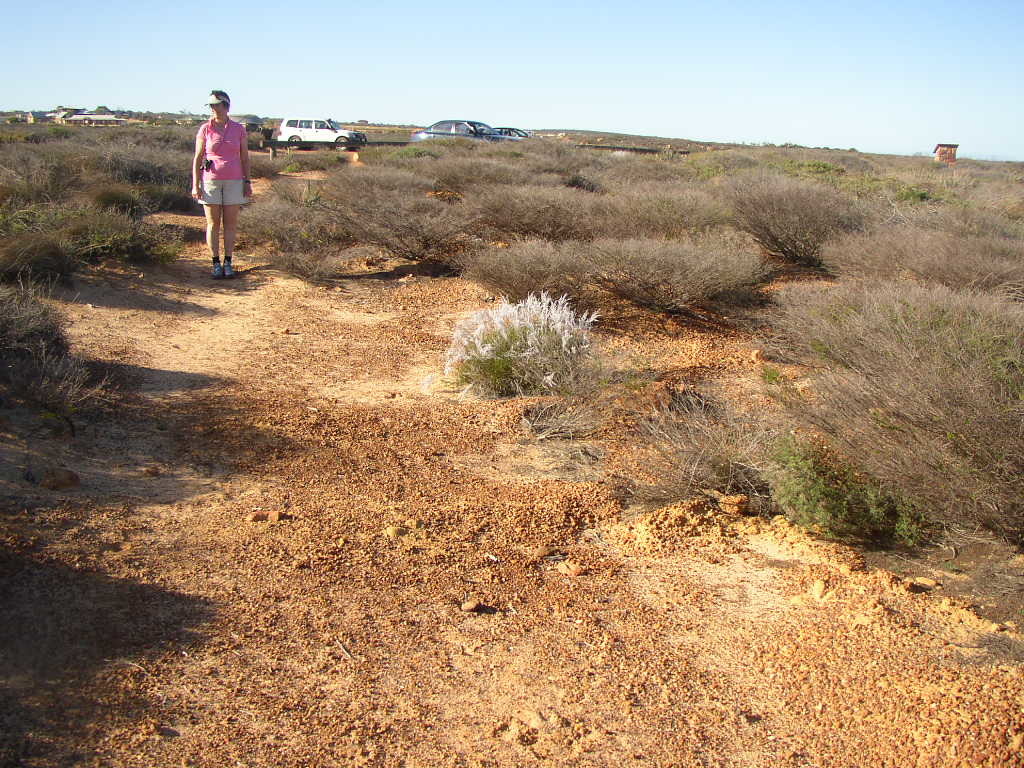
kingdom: Plantae
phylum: Tracheophyta
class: Magnoliopsida
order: Proteales
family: Proteaceae
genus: Conospermum
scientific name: Conospermum stoechadis
